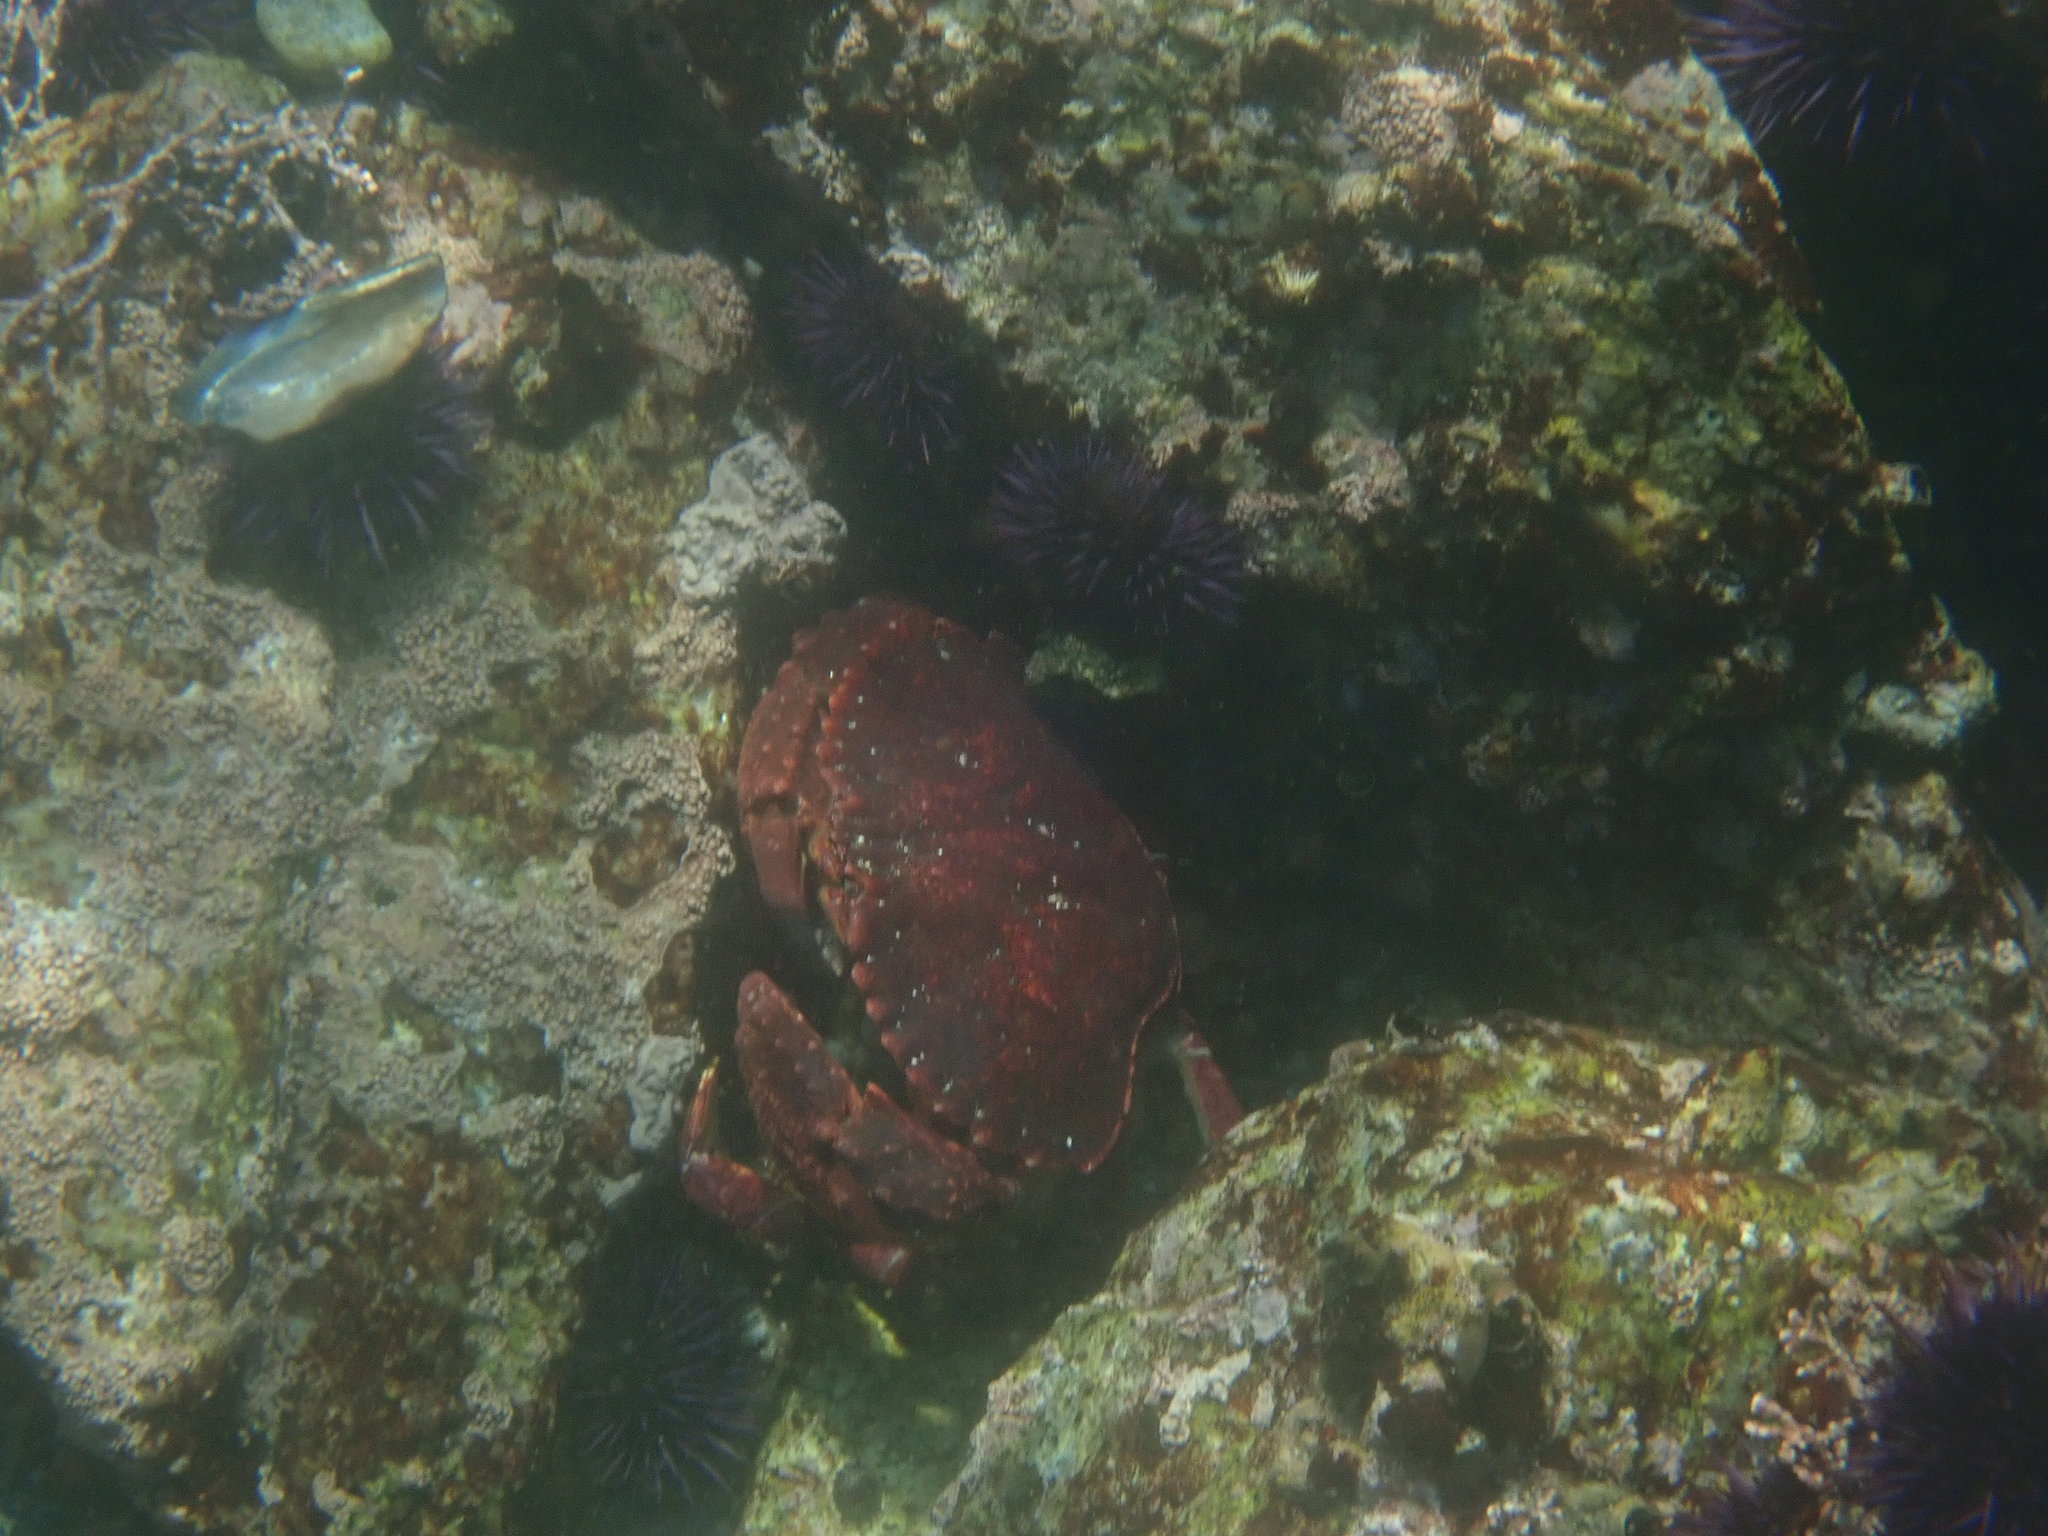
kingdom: Animalia
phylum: Arthropoda
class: Malacostraca
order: Decapoda
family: Cancridae
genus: Cancer
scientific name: Cancer productus
